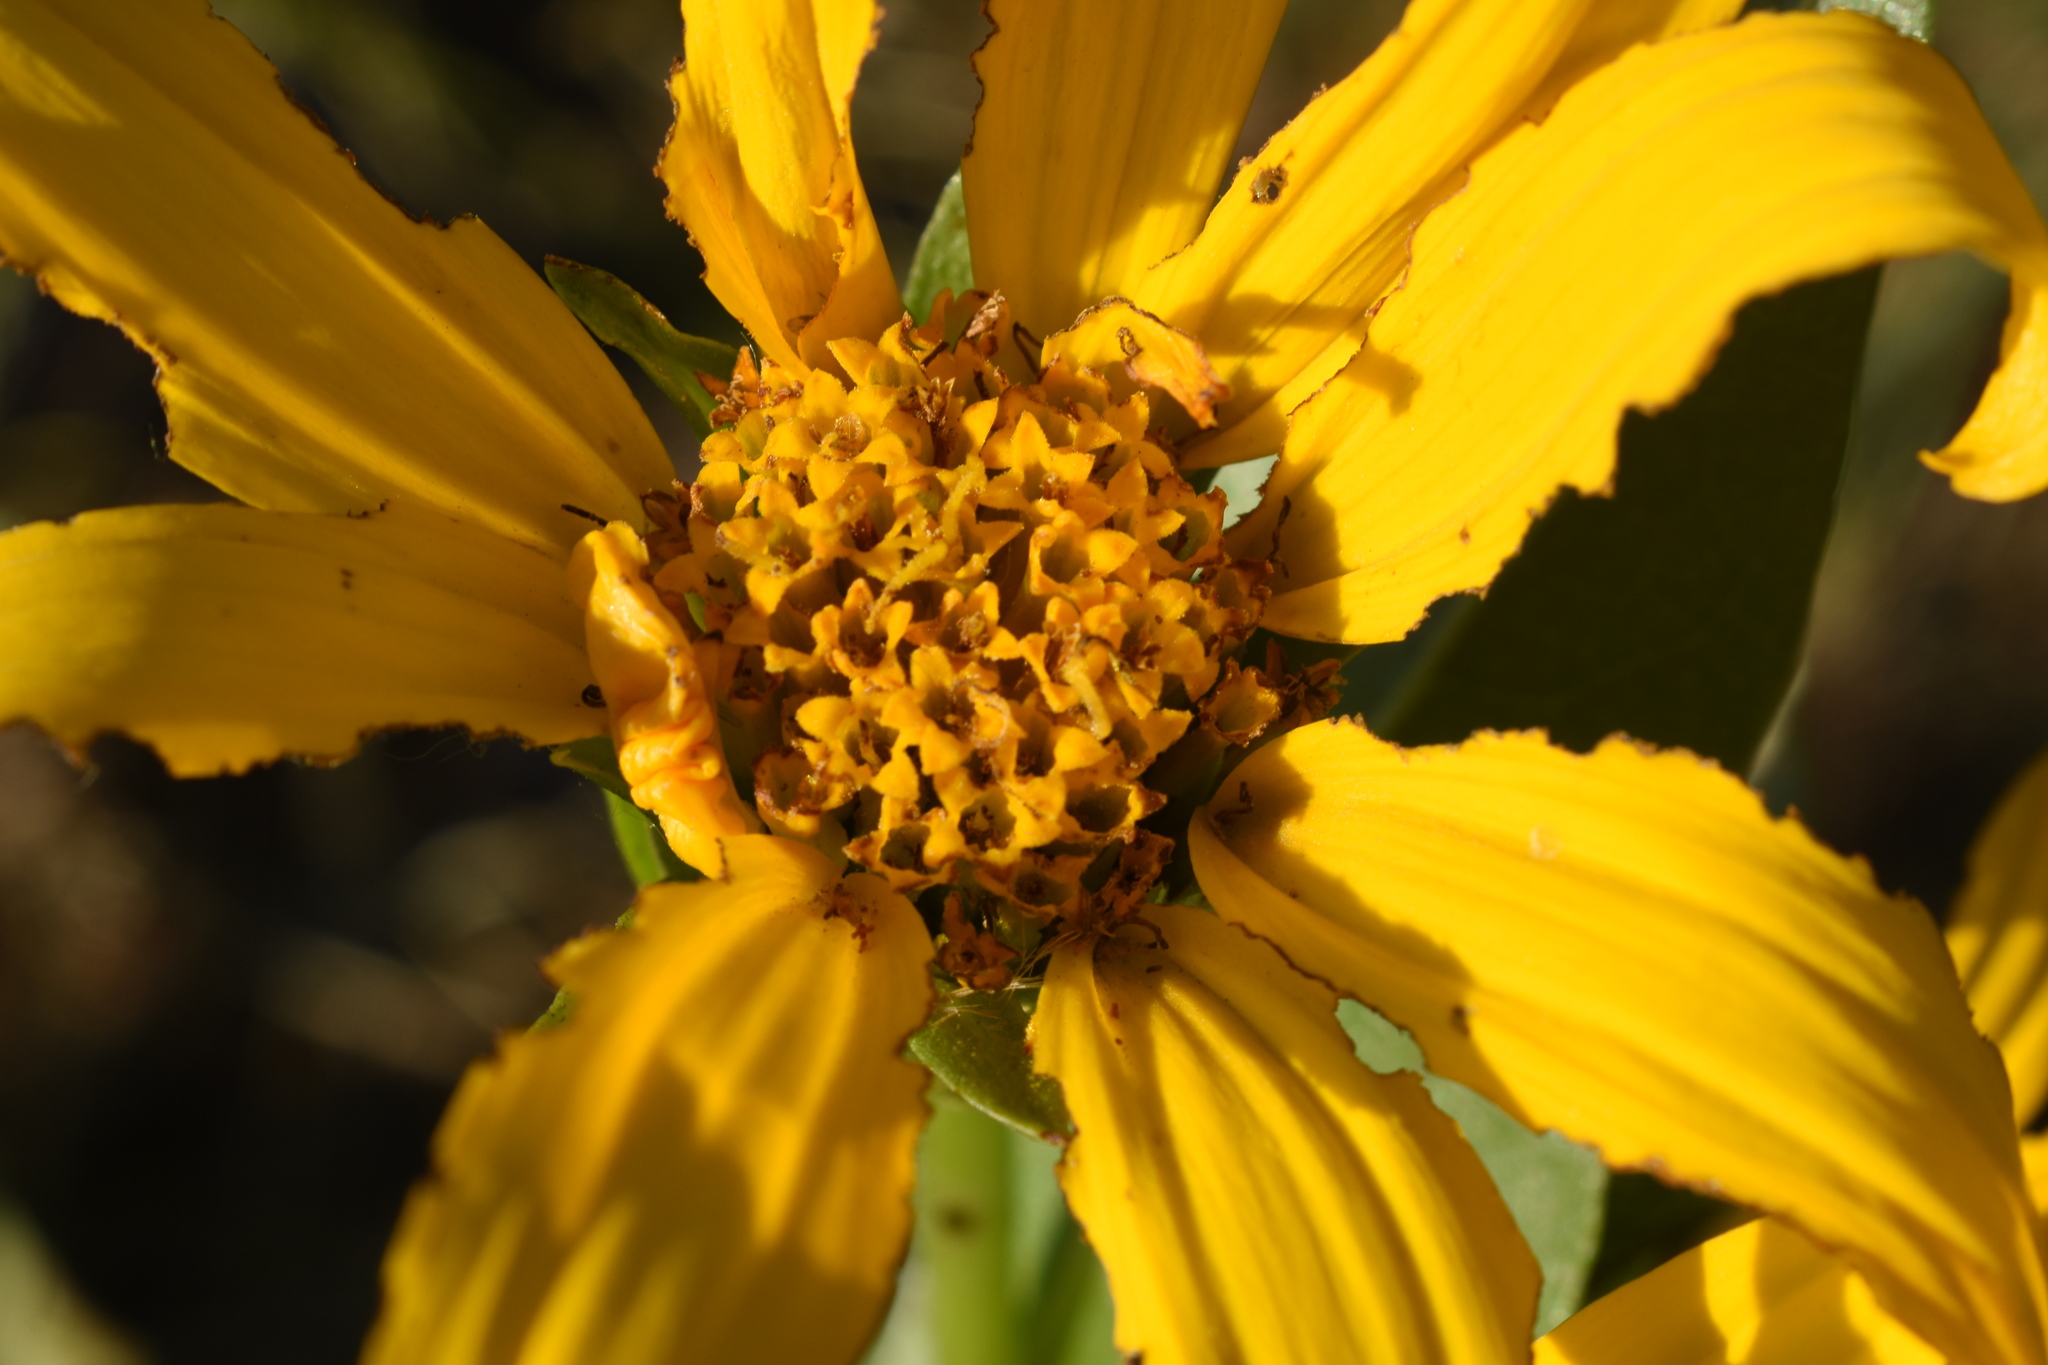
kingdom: Plantae
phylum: Tracheophyta
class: Magnoliopsida
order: Asterales
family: Asteraceae
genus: Wyethia
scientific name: Wyethia amplexicaulis
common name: Northern mule's-ears
